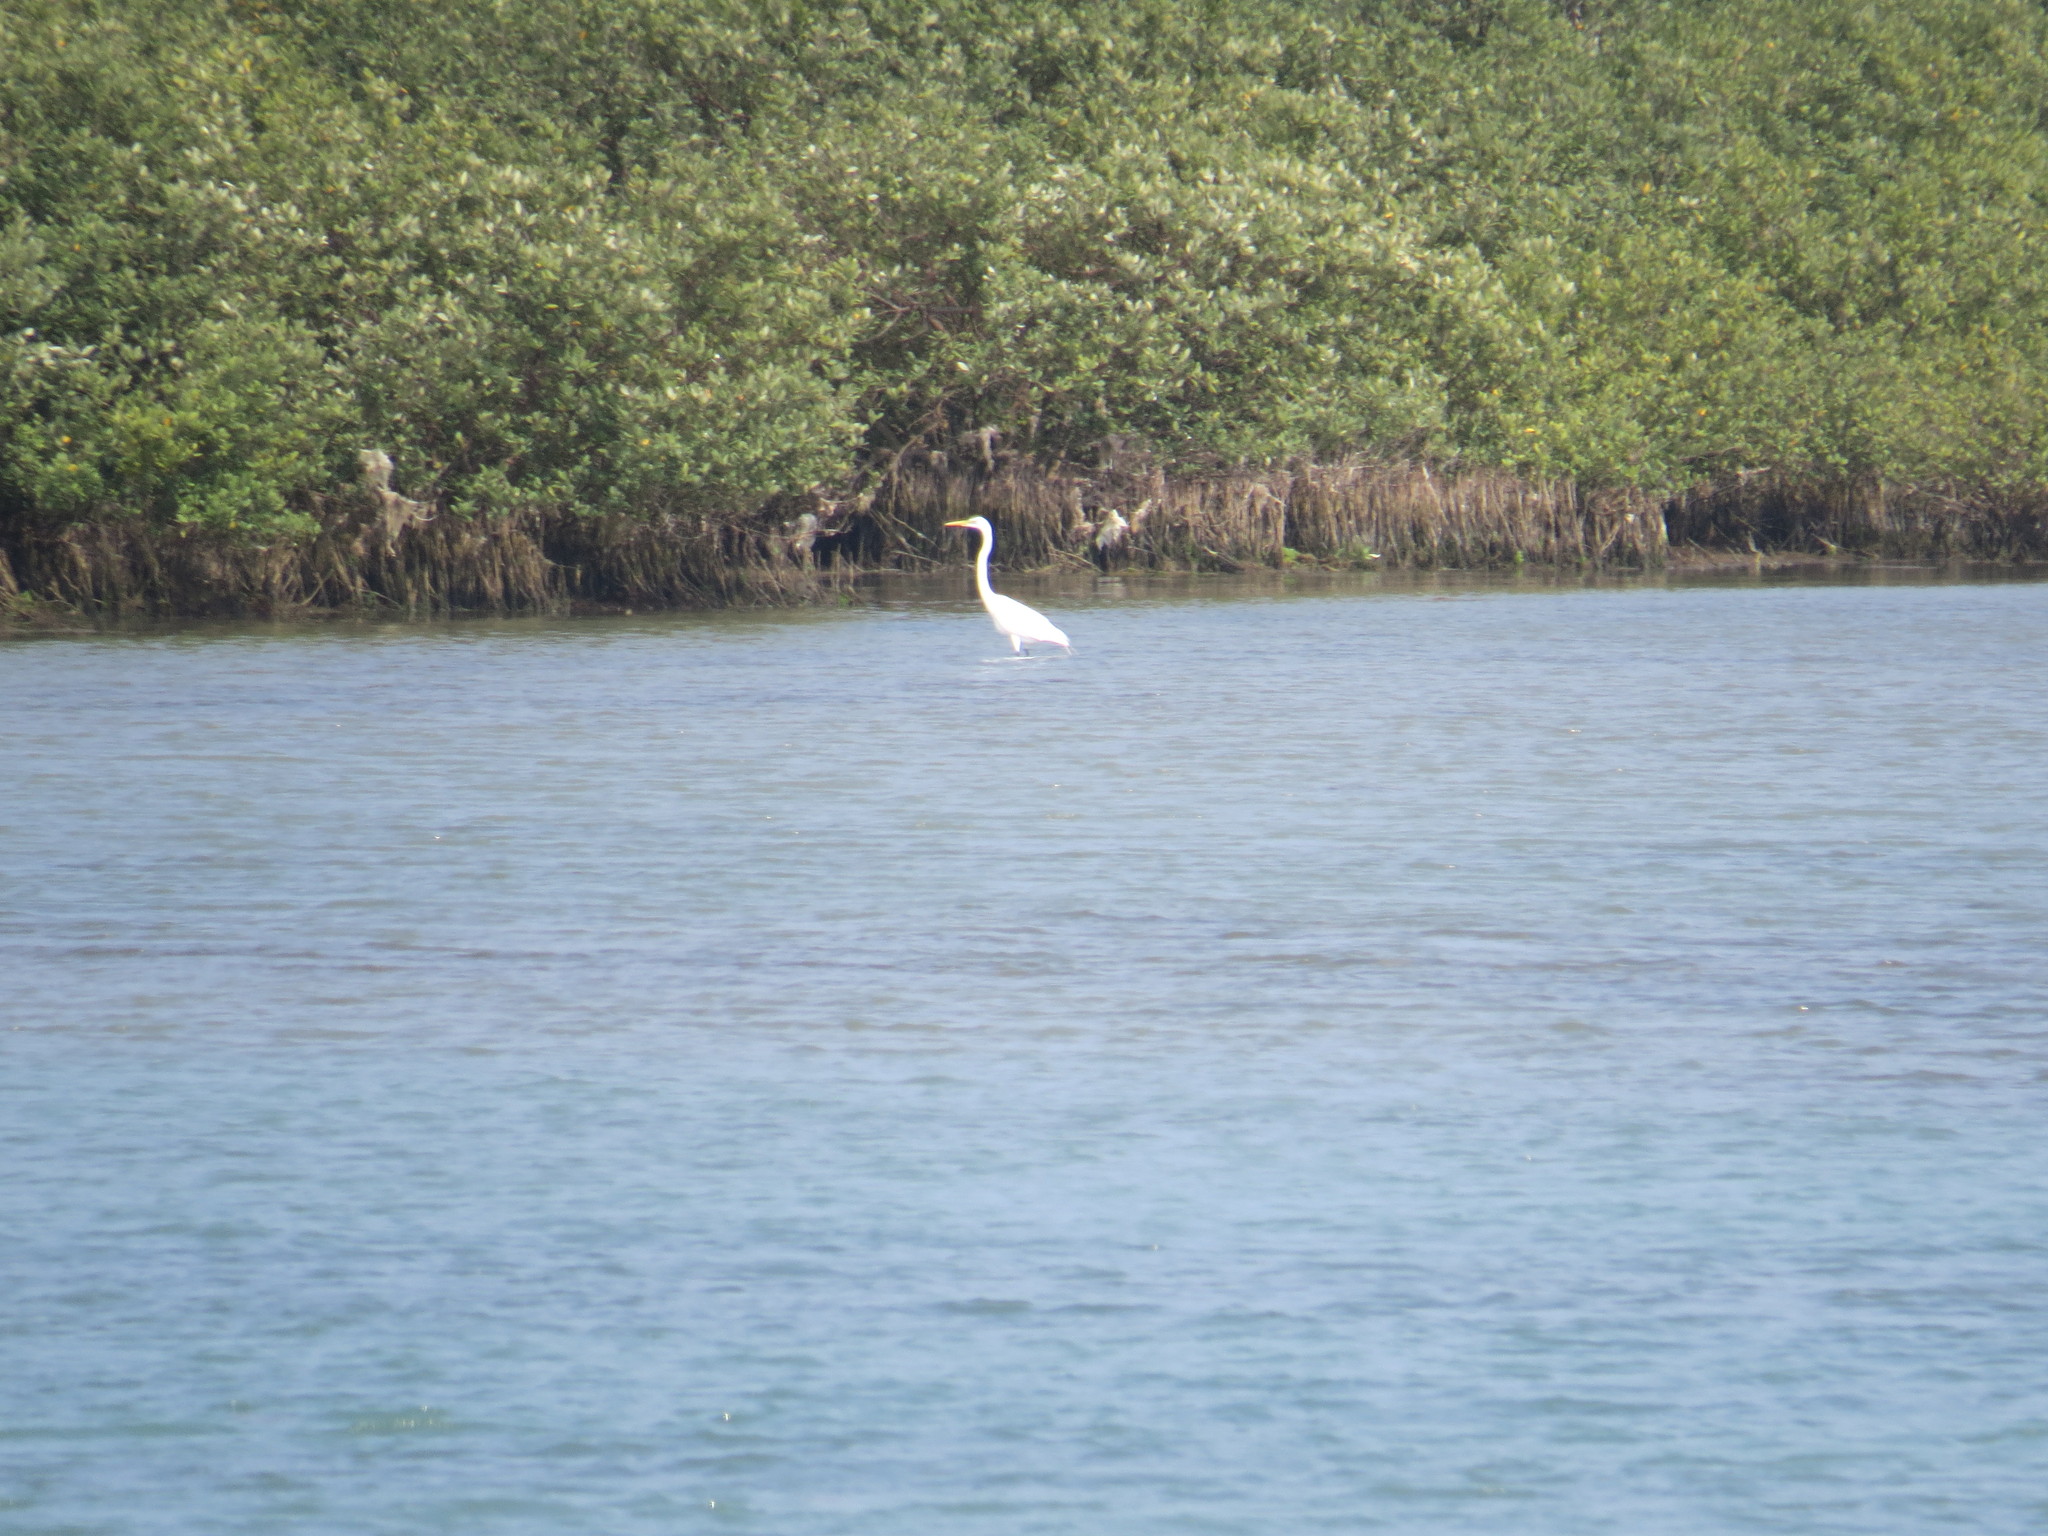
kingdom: Animalia
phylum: Chordata
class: Aves
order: Pelecaniformes
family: Ardeidae
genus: Ardea
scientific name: Ardea alba
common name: Great egret
